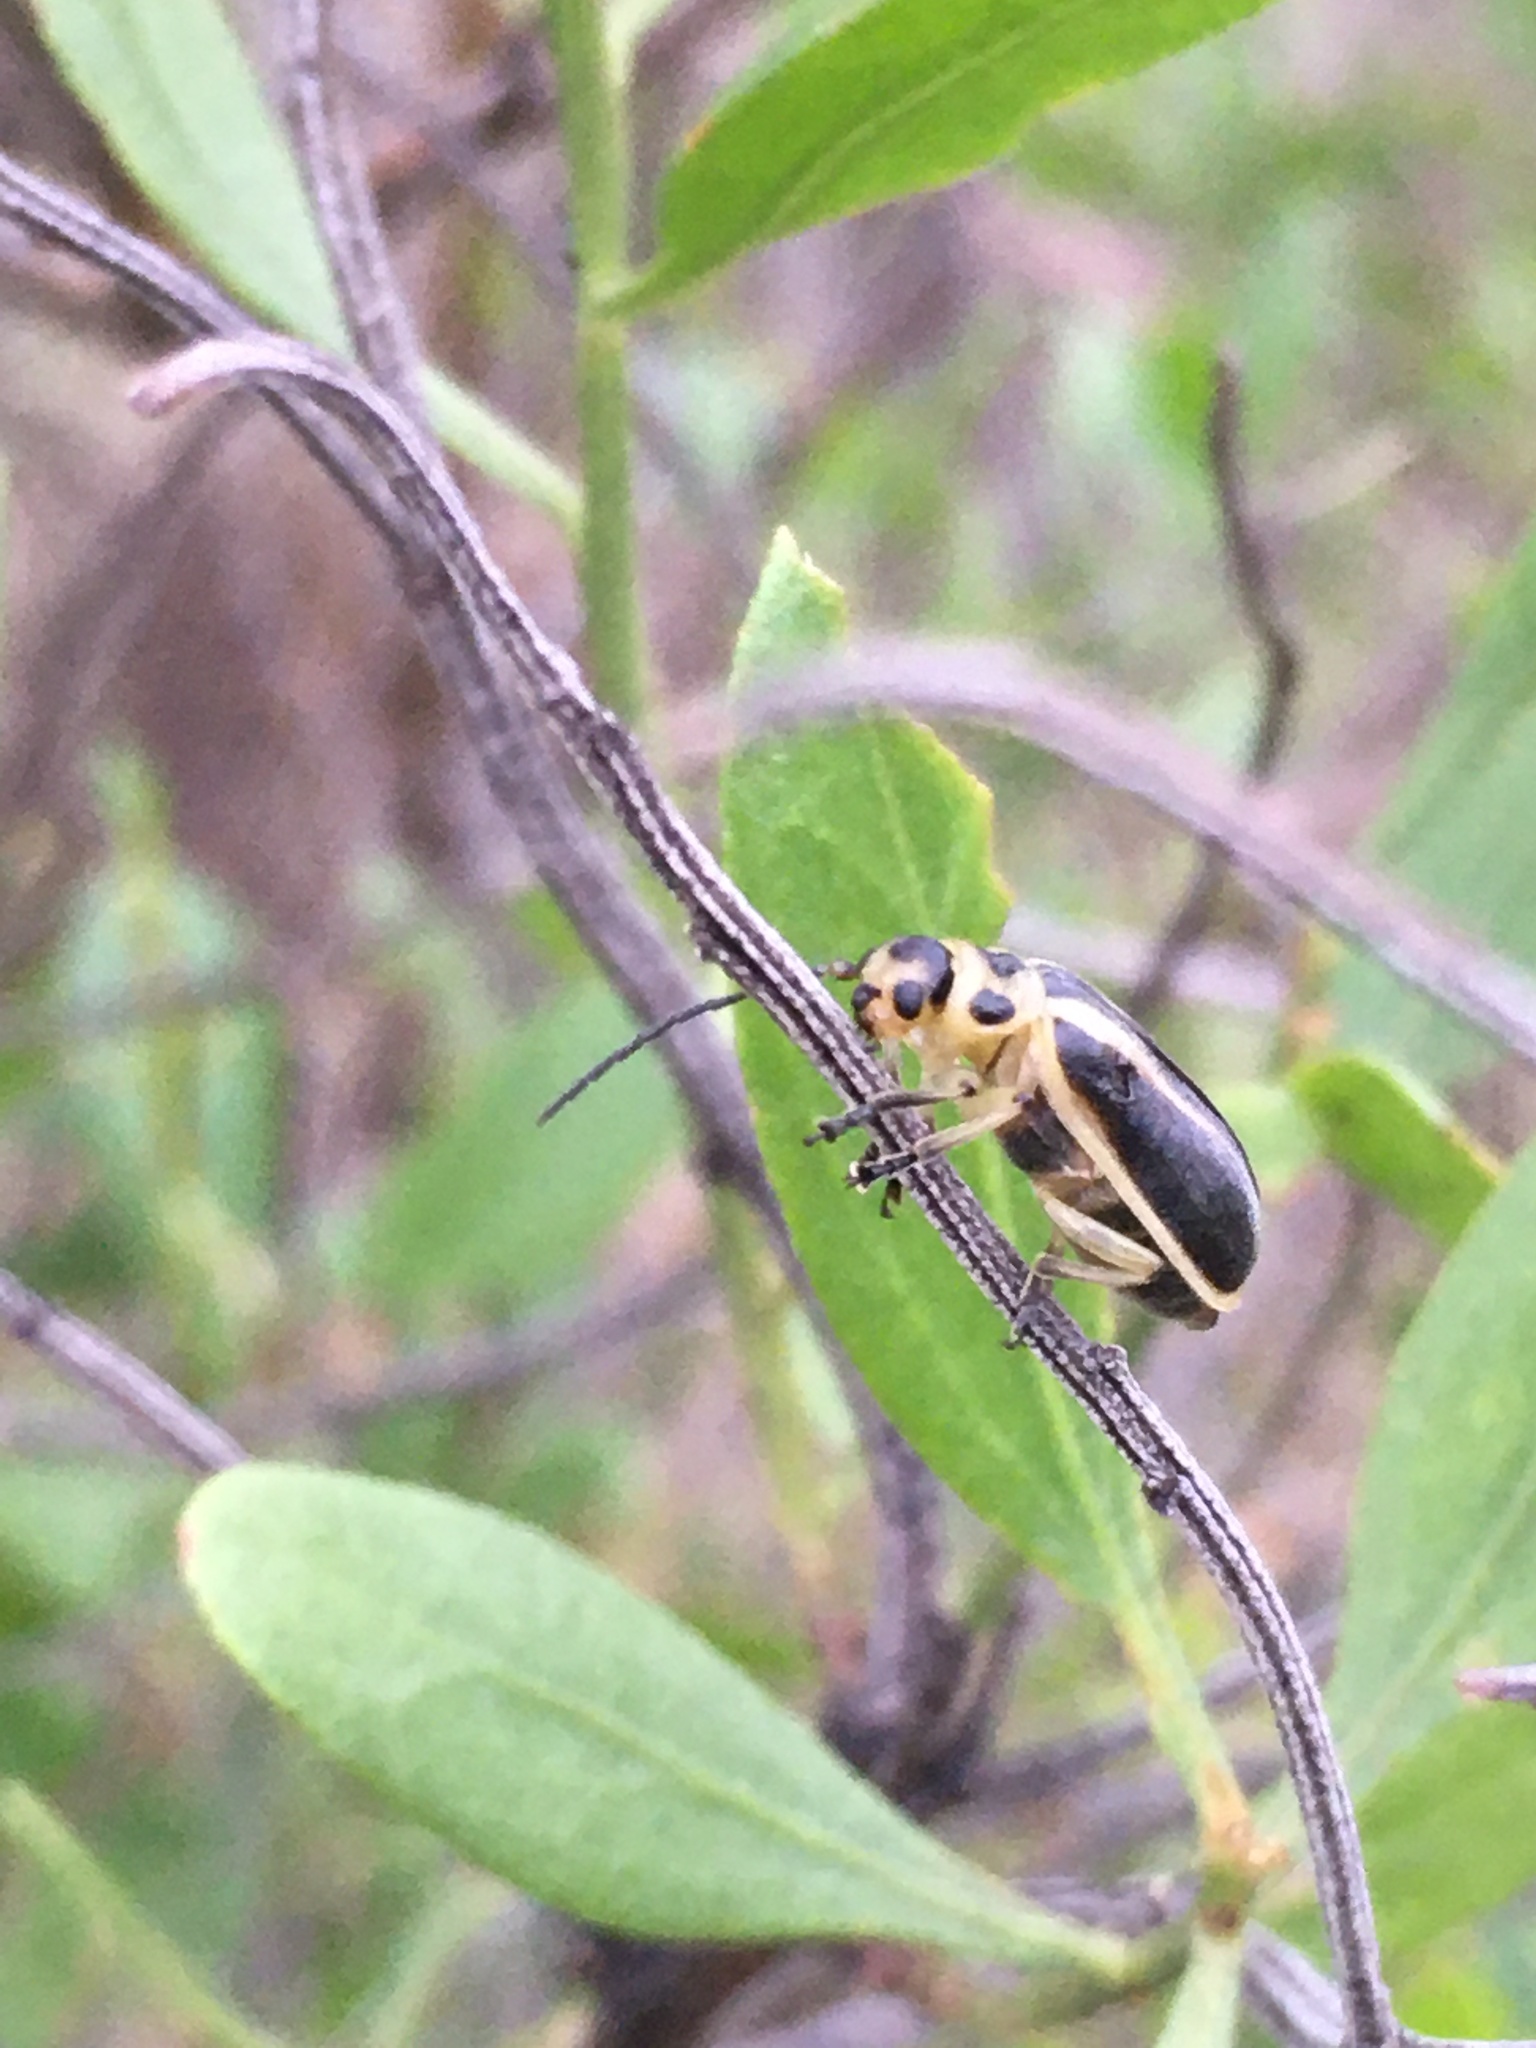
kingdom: Animalia
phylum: Arthropoda
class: Insecta
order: Coleoptera
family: Chrysomelidae
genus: Trirhabda
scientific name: Trirhabda bacharidis
